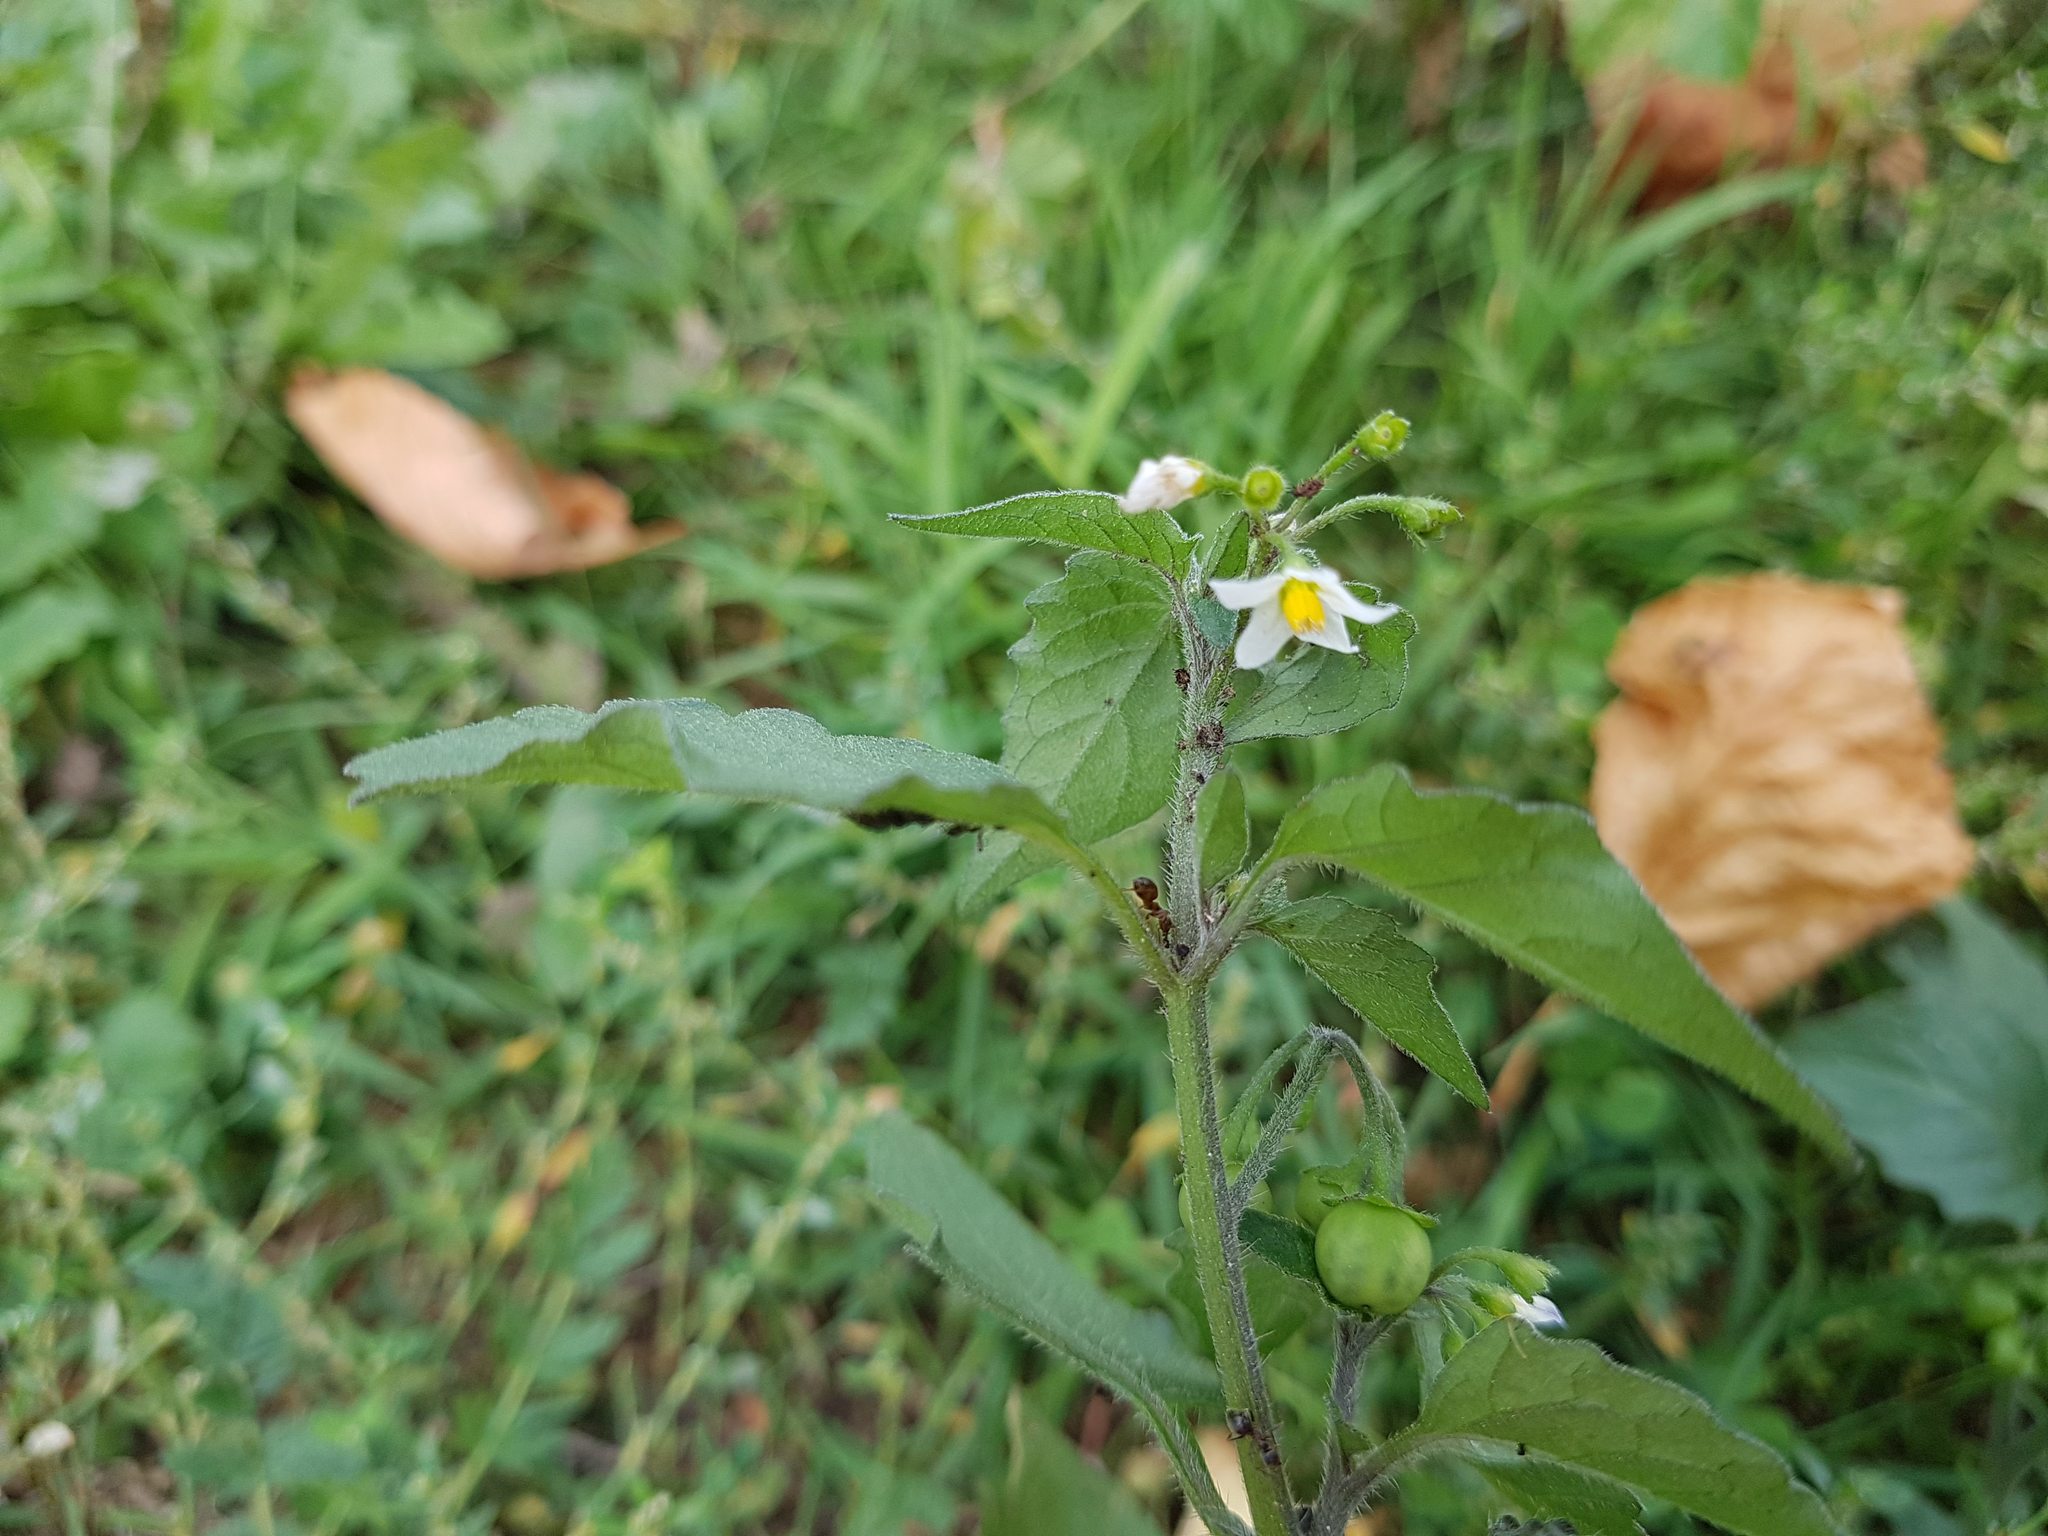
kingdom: Plantae
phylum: Tracheophyta
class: Magnoliopsida
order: Solanales
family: Solanaceae
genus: Solanum
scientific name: Solanum nigrum
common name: Black nightshade
